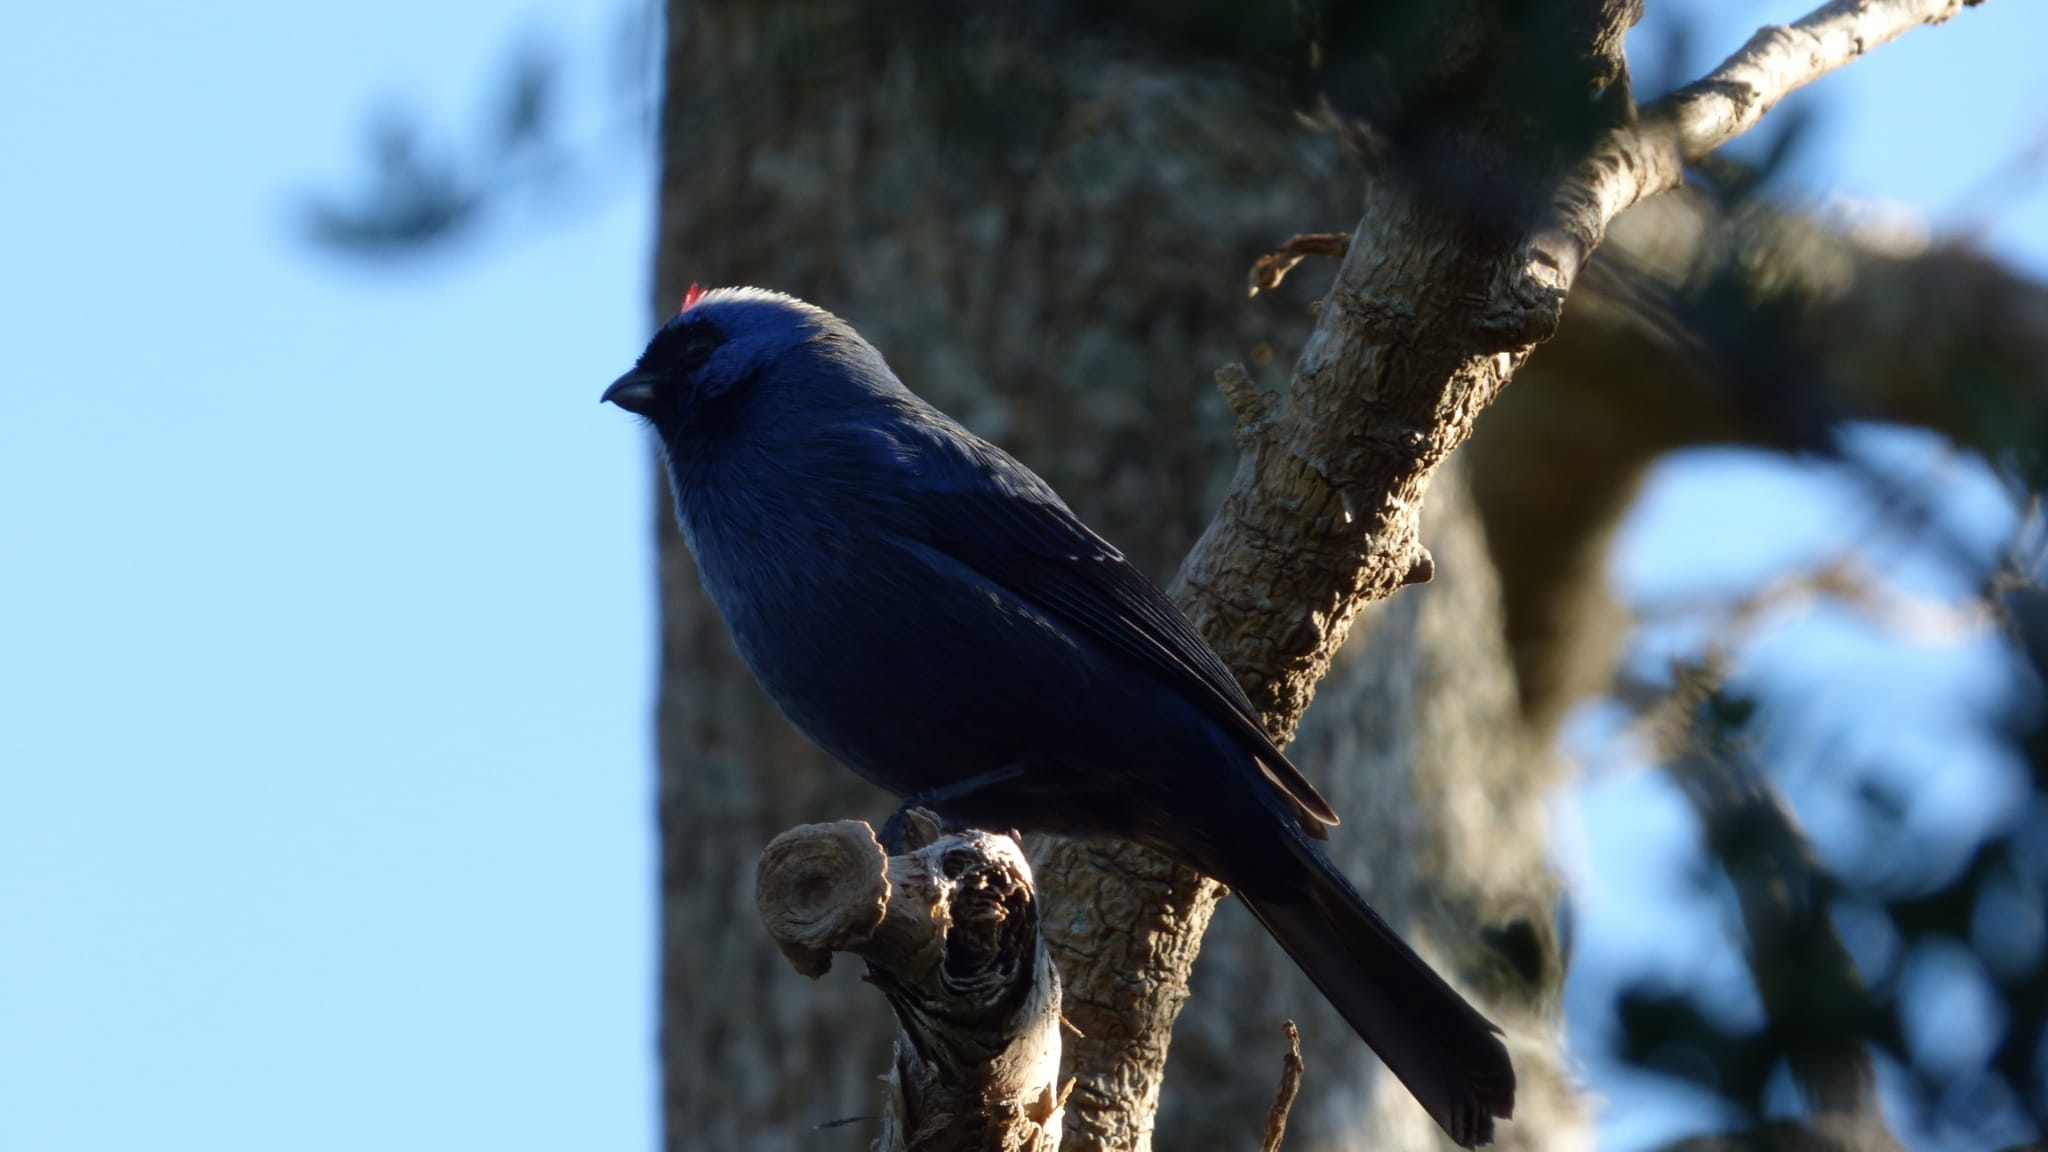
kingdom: Animalia
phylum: Chordata
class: Aves
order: Passeriformes
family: Thraupidae
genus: Stephanophorus
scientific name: Stephanophorus diadematus
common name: Diademed tanager
